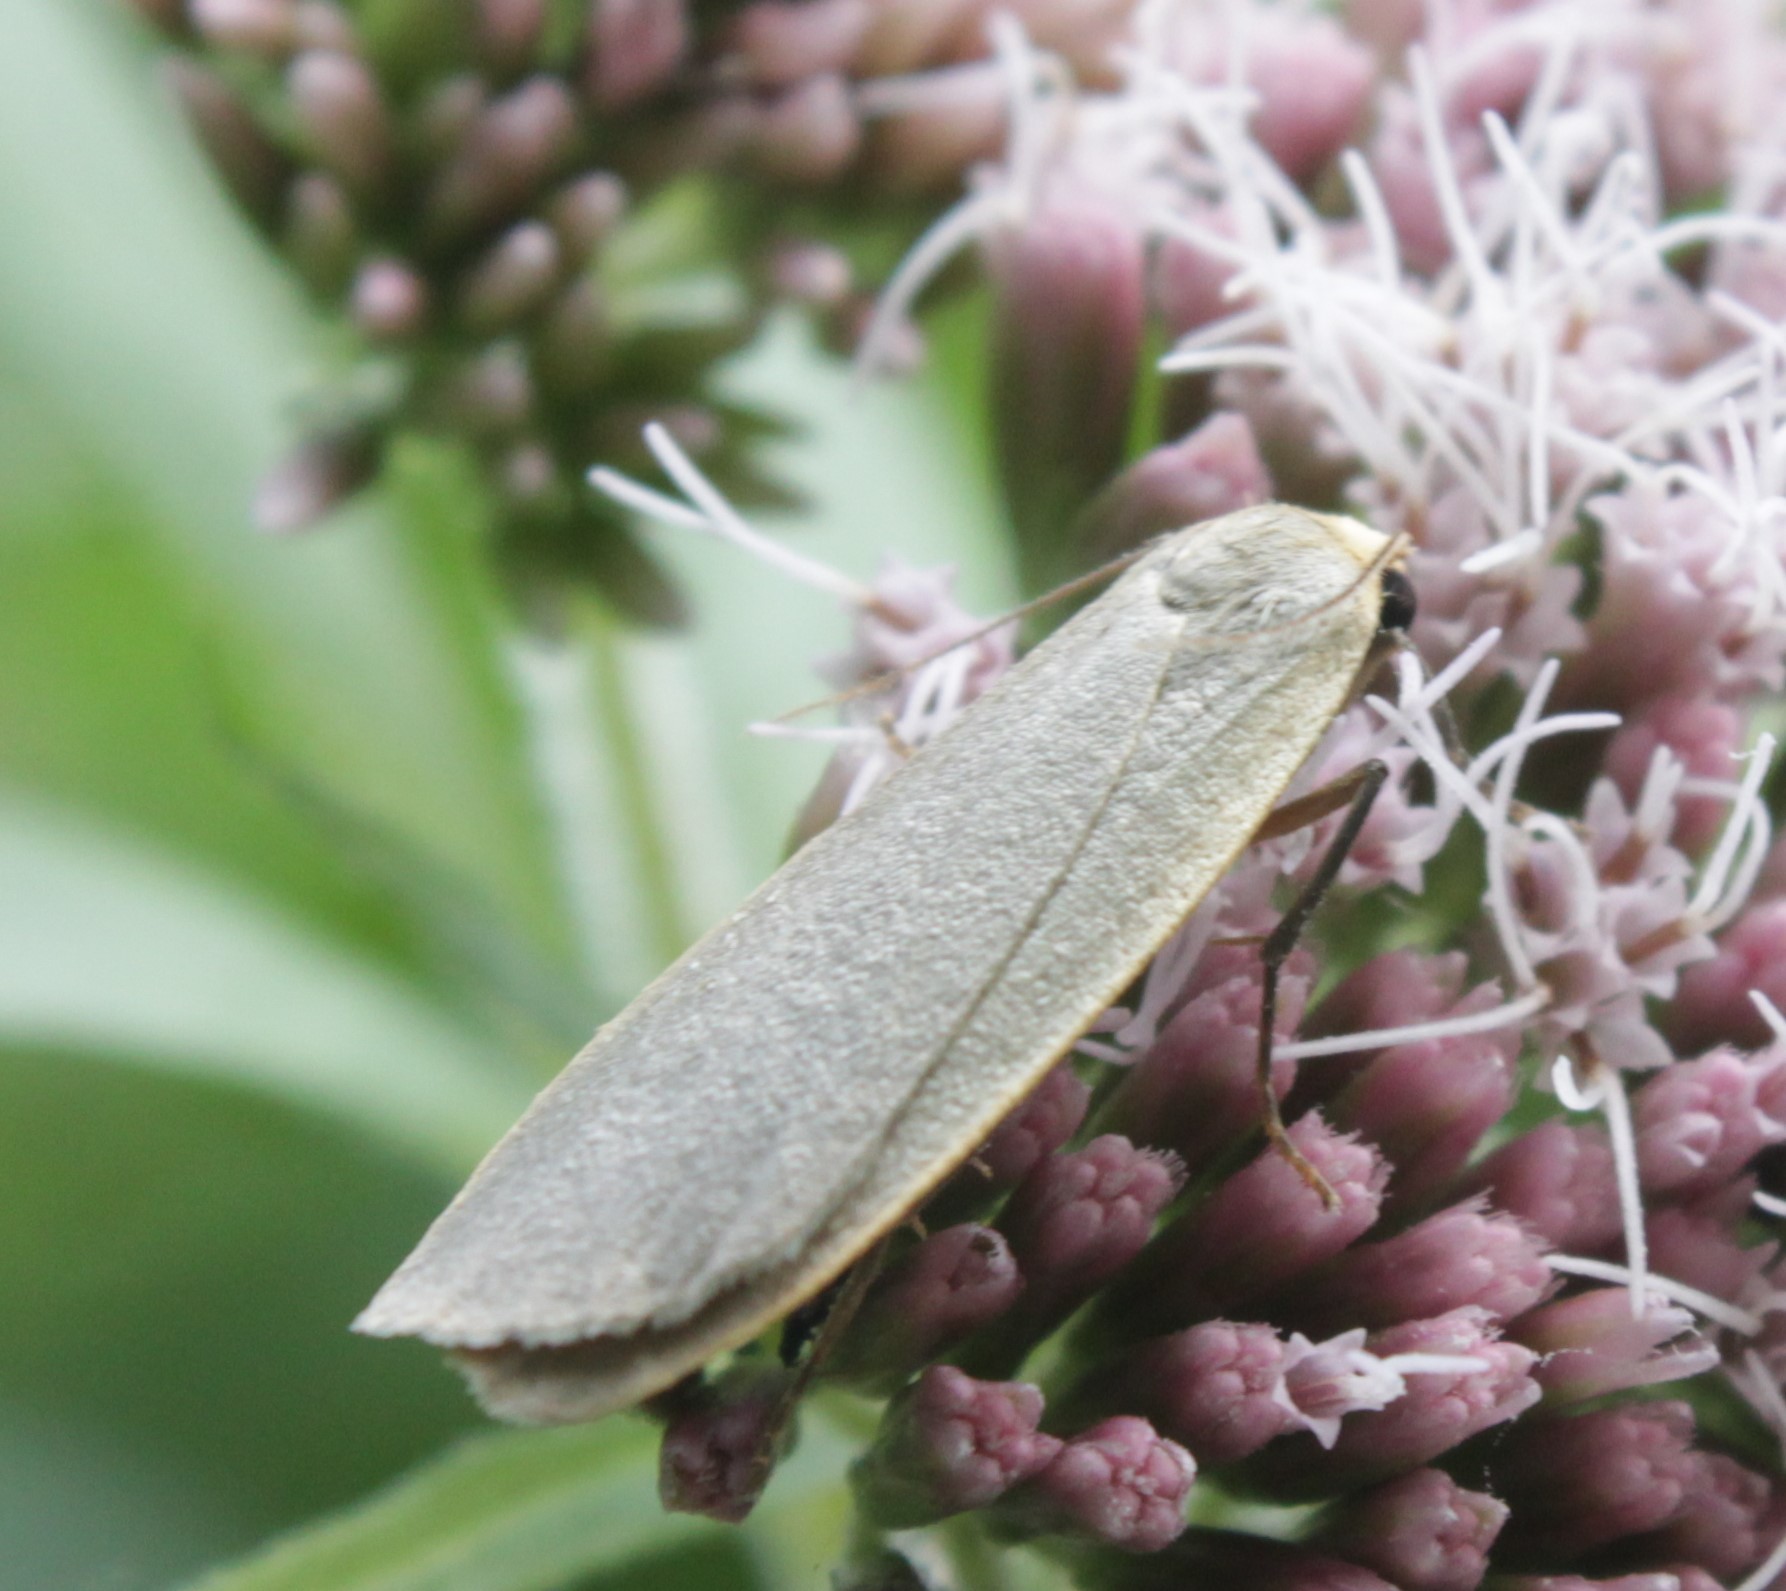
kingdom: Animalia
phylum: Arthropoda
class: Insecta
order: Lepidoptera
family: Erebidae
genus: Collita
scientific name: Collita griseola
